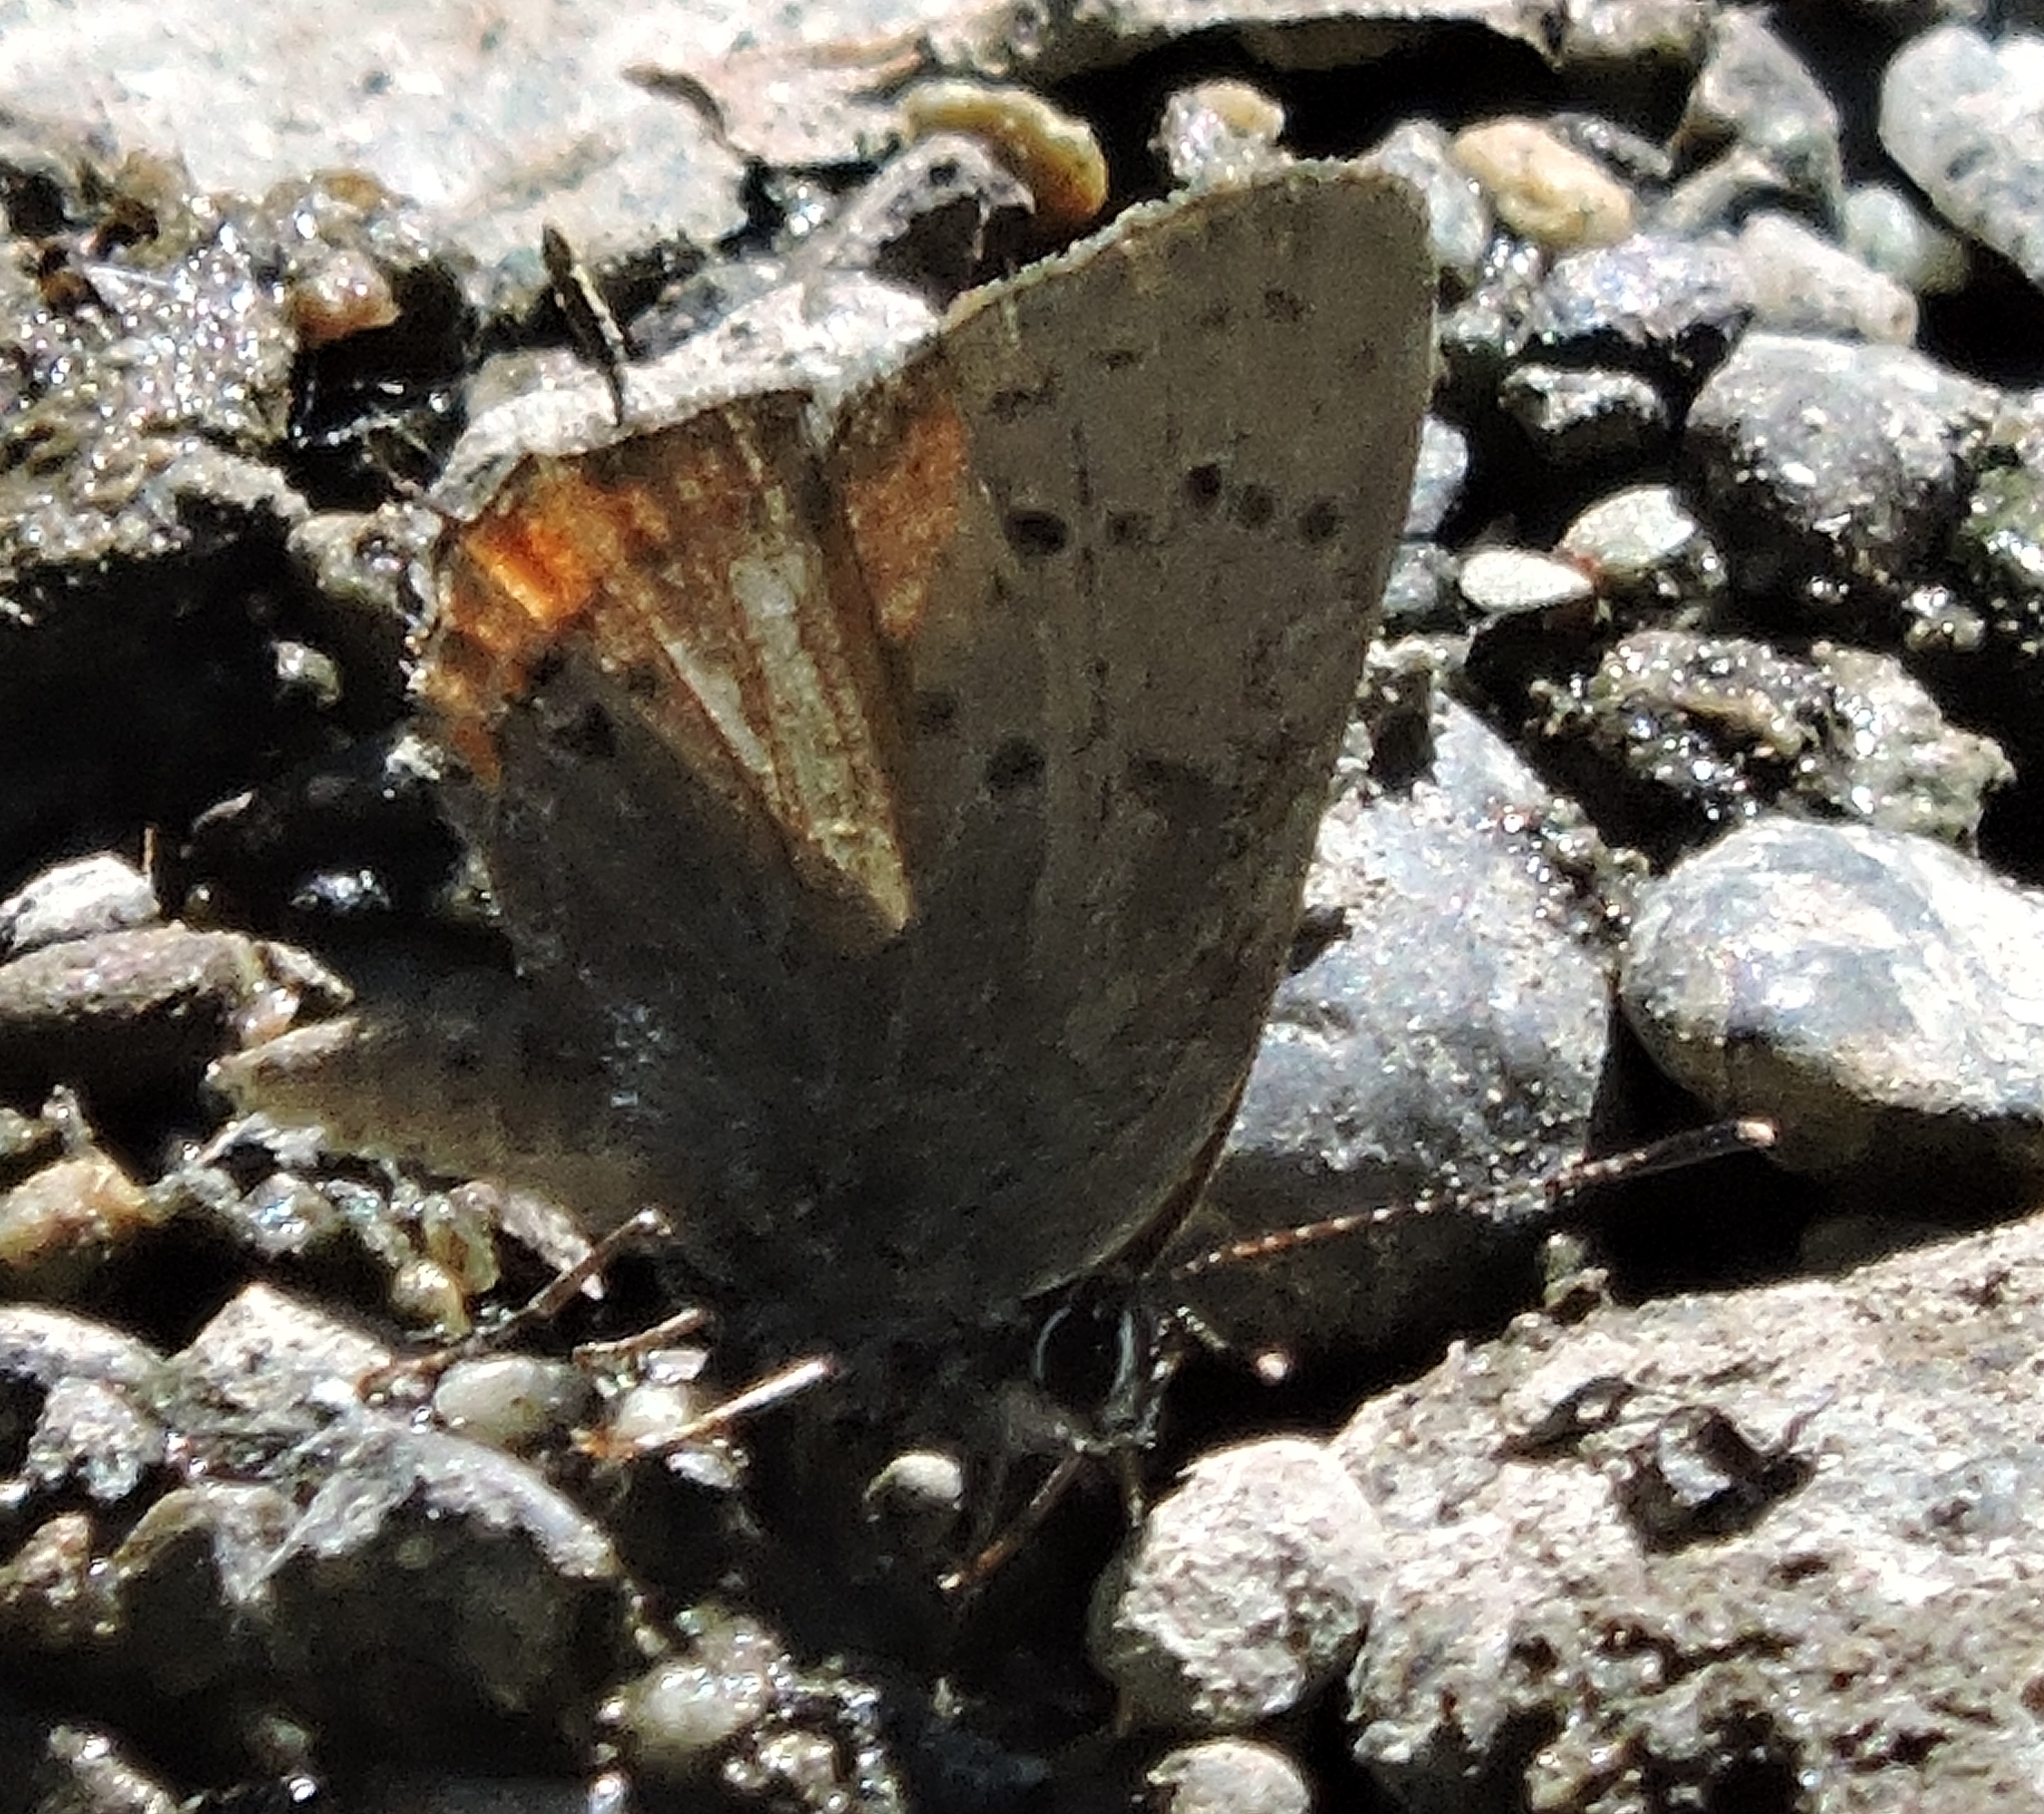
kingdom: Animalia
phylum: Arthropoda
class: Insecta
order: Lepidoptera
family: Lycaenidae
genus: Strymon
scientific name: Strymon acadica
